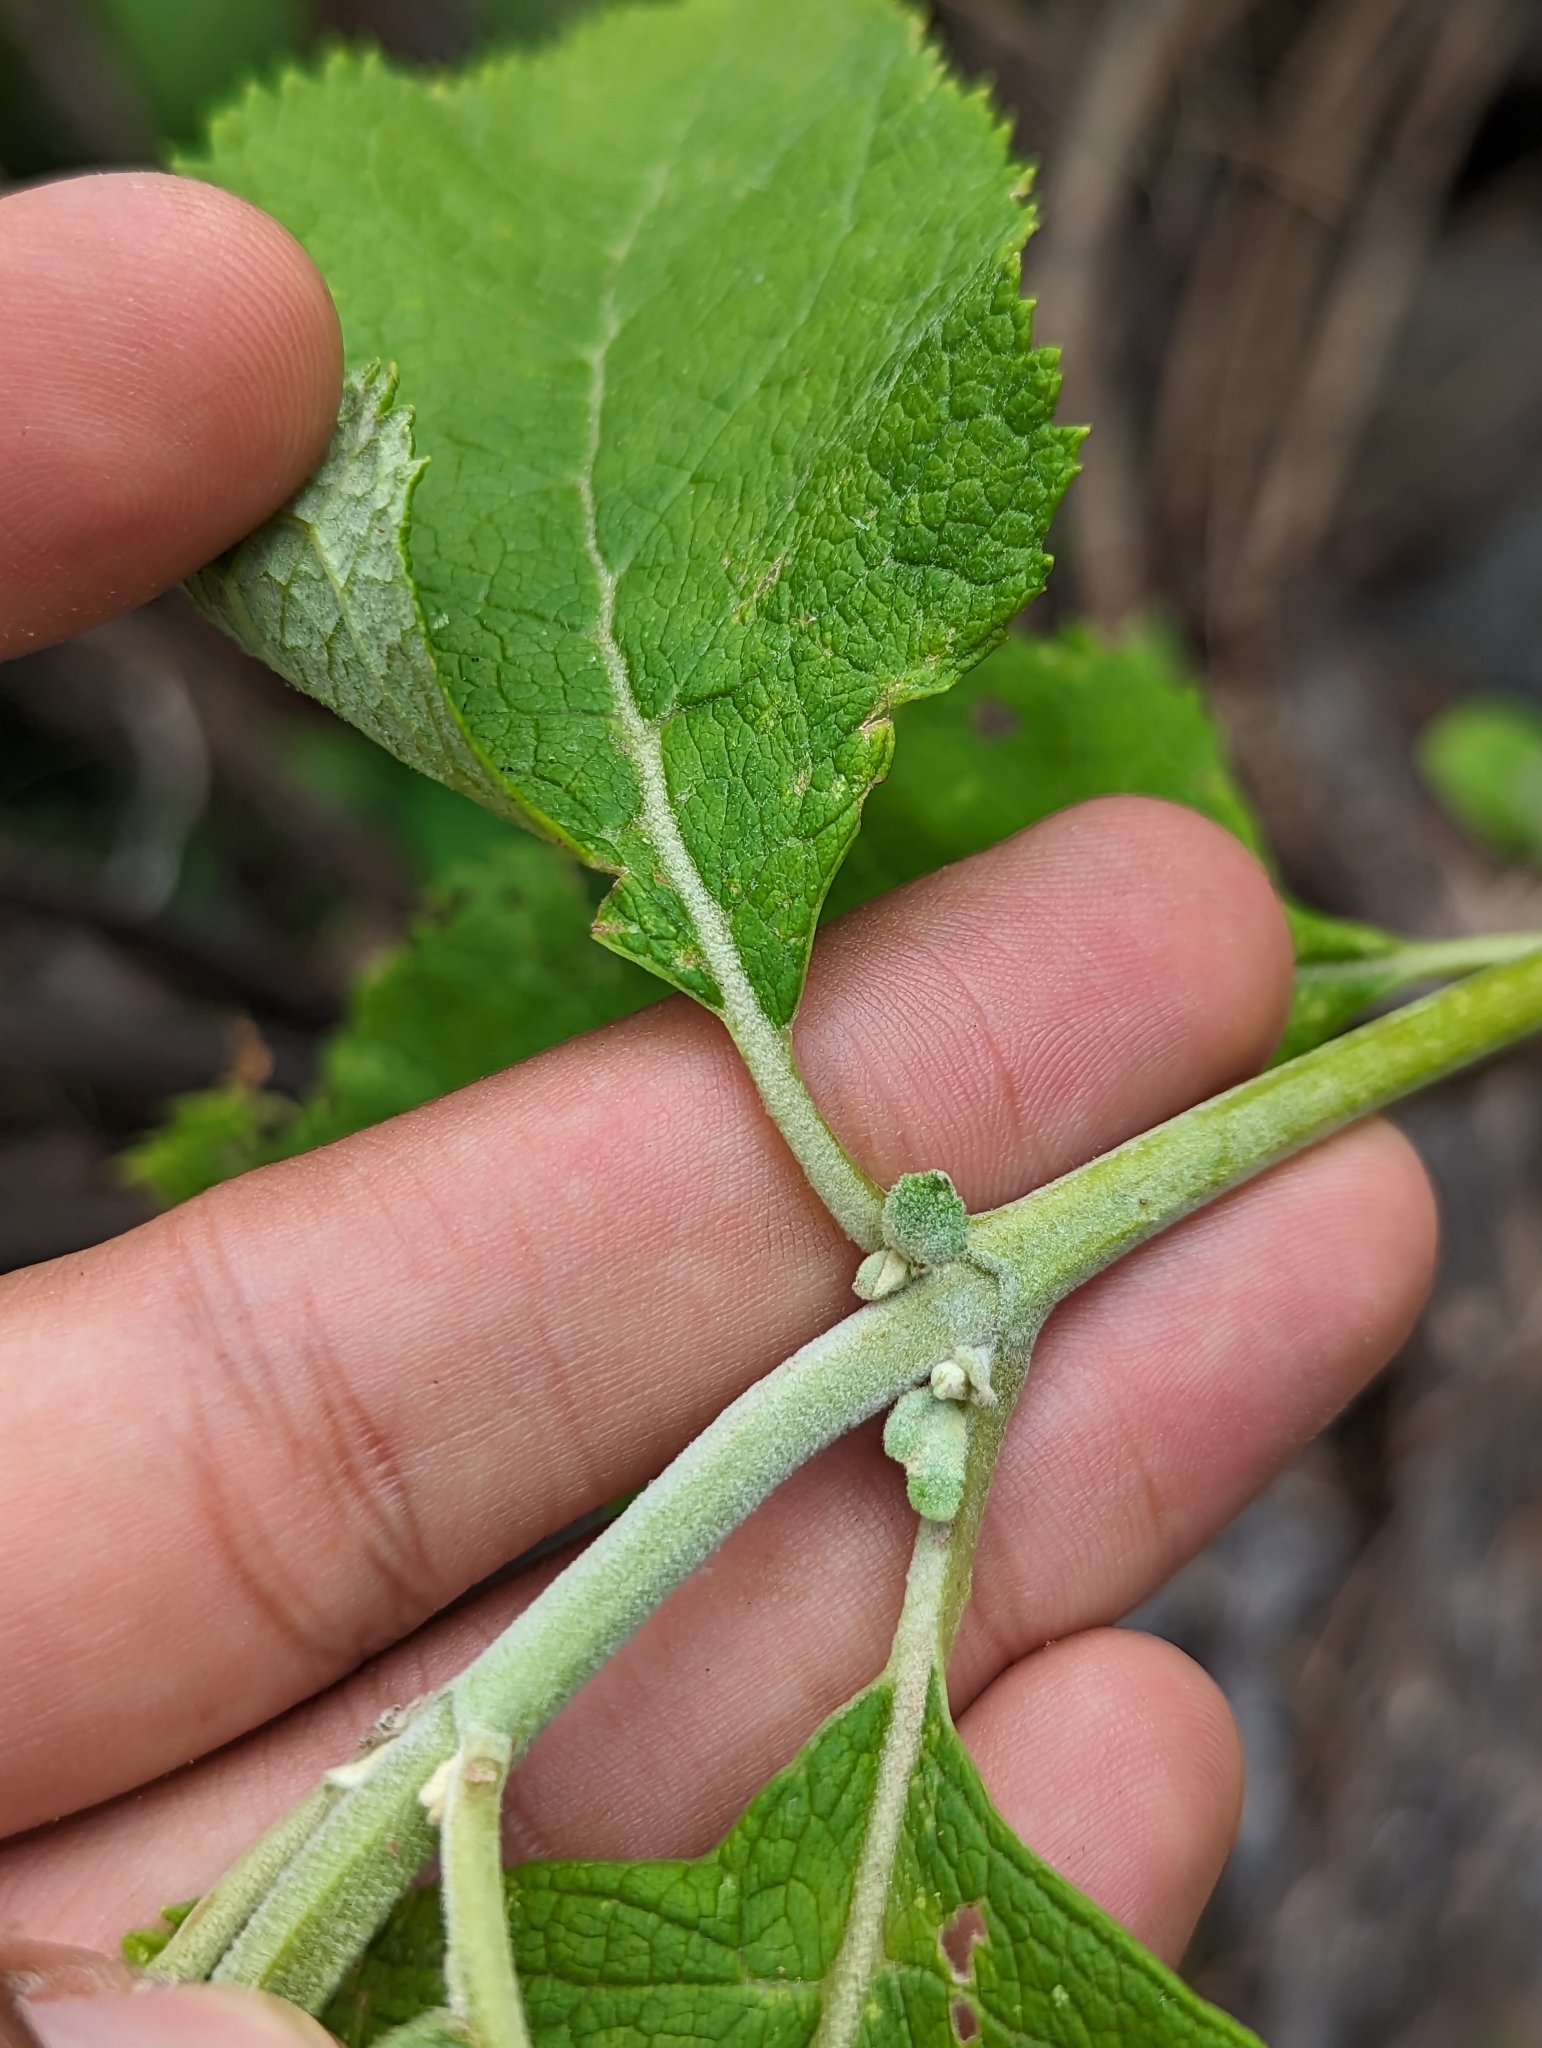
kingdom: Plantae
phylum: Tracheophyta
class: Magnoliopsida
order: Lamiales
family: Scrophulariaceae
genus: Buddleja
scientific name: Buddleja crotonoides
